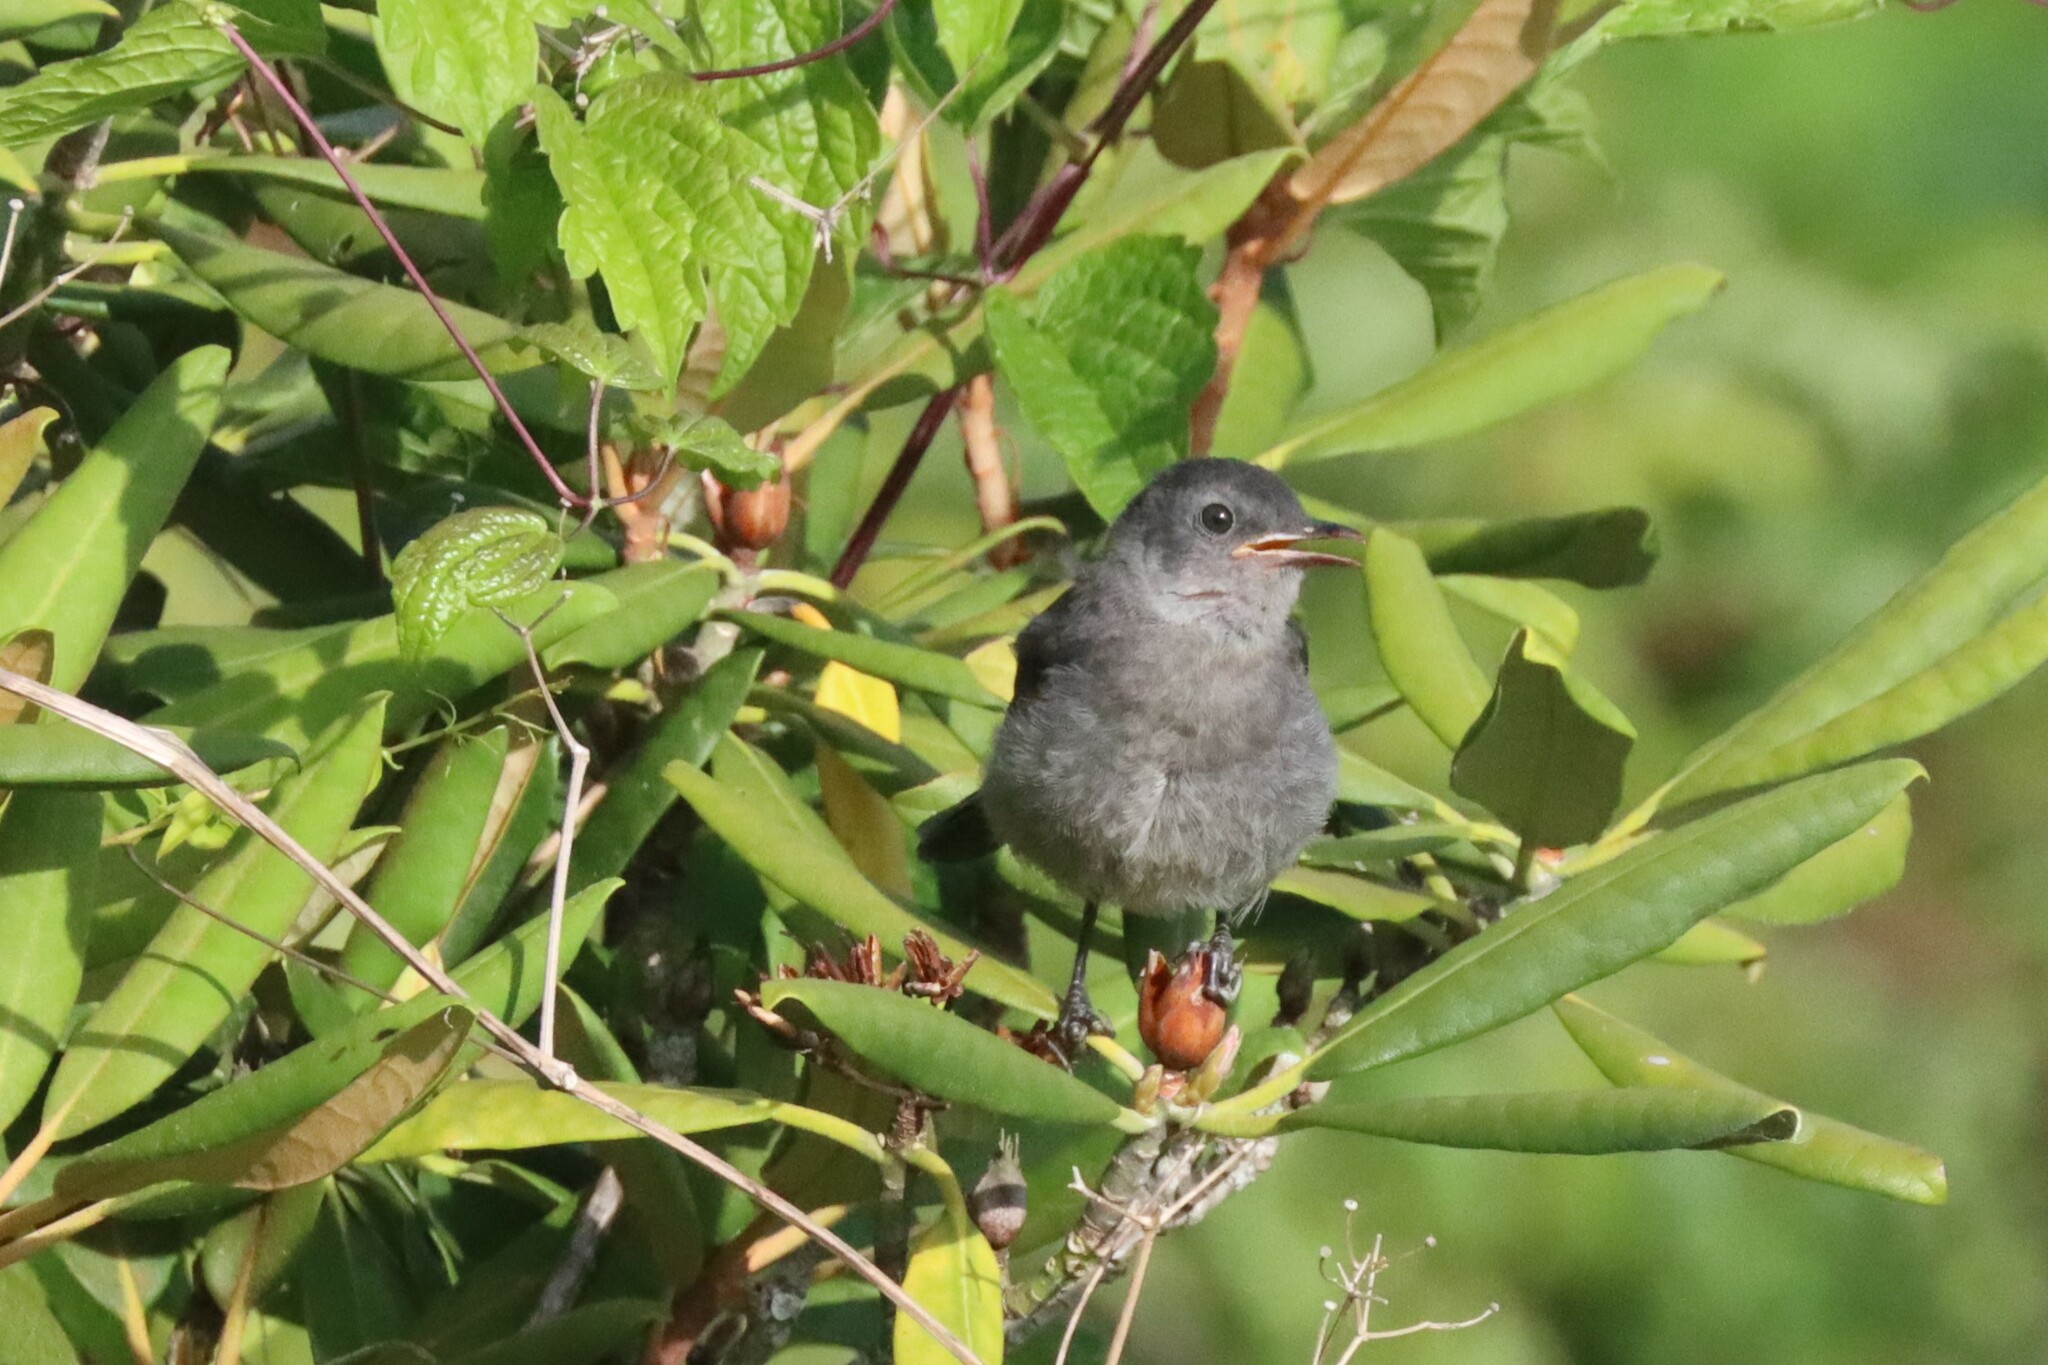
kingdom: Animalia
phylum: Chordata
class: Aves
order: Passeriformes
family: Mimidae
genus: Dumetella
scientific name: Dumetella carolinensis
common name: Gray catbird
